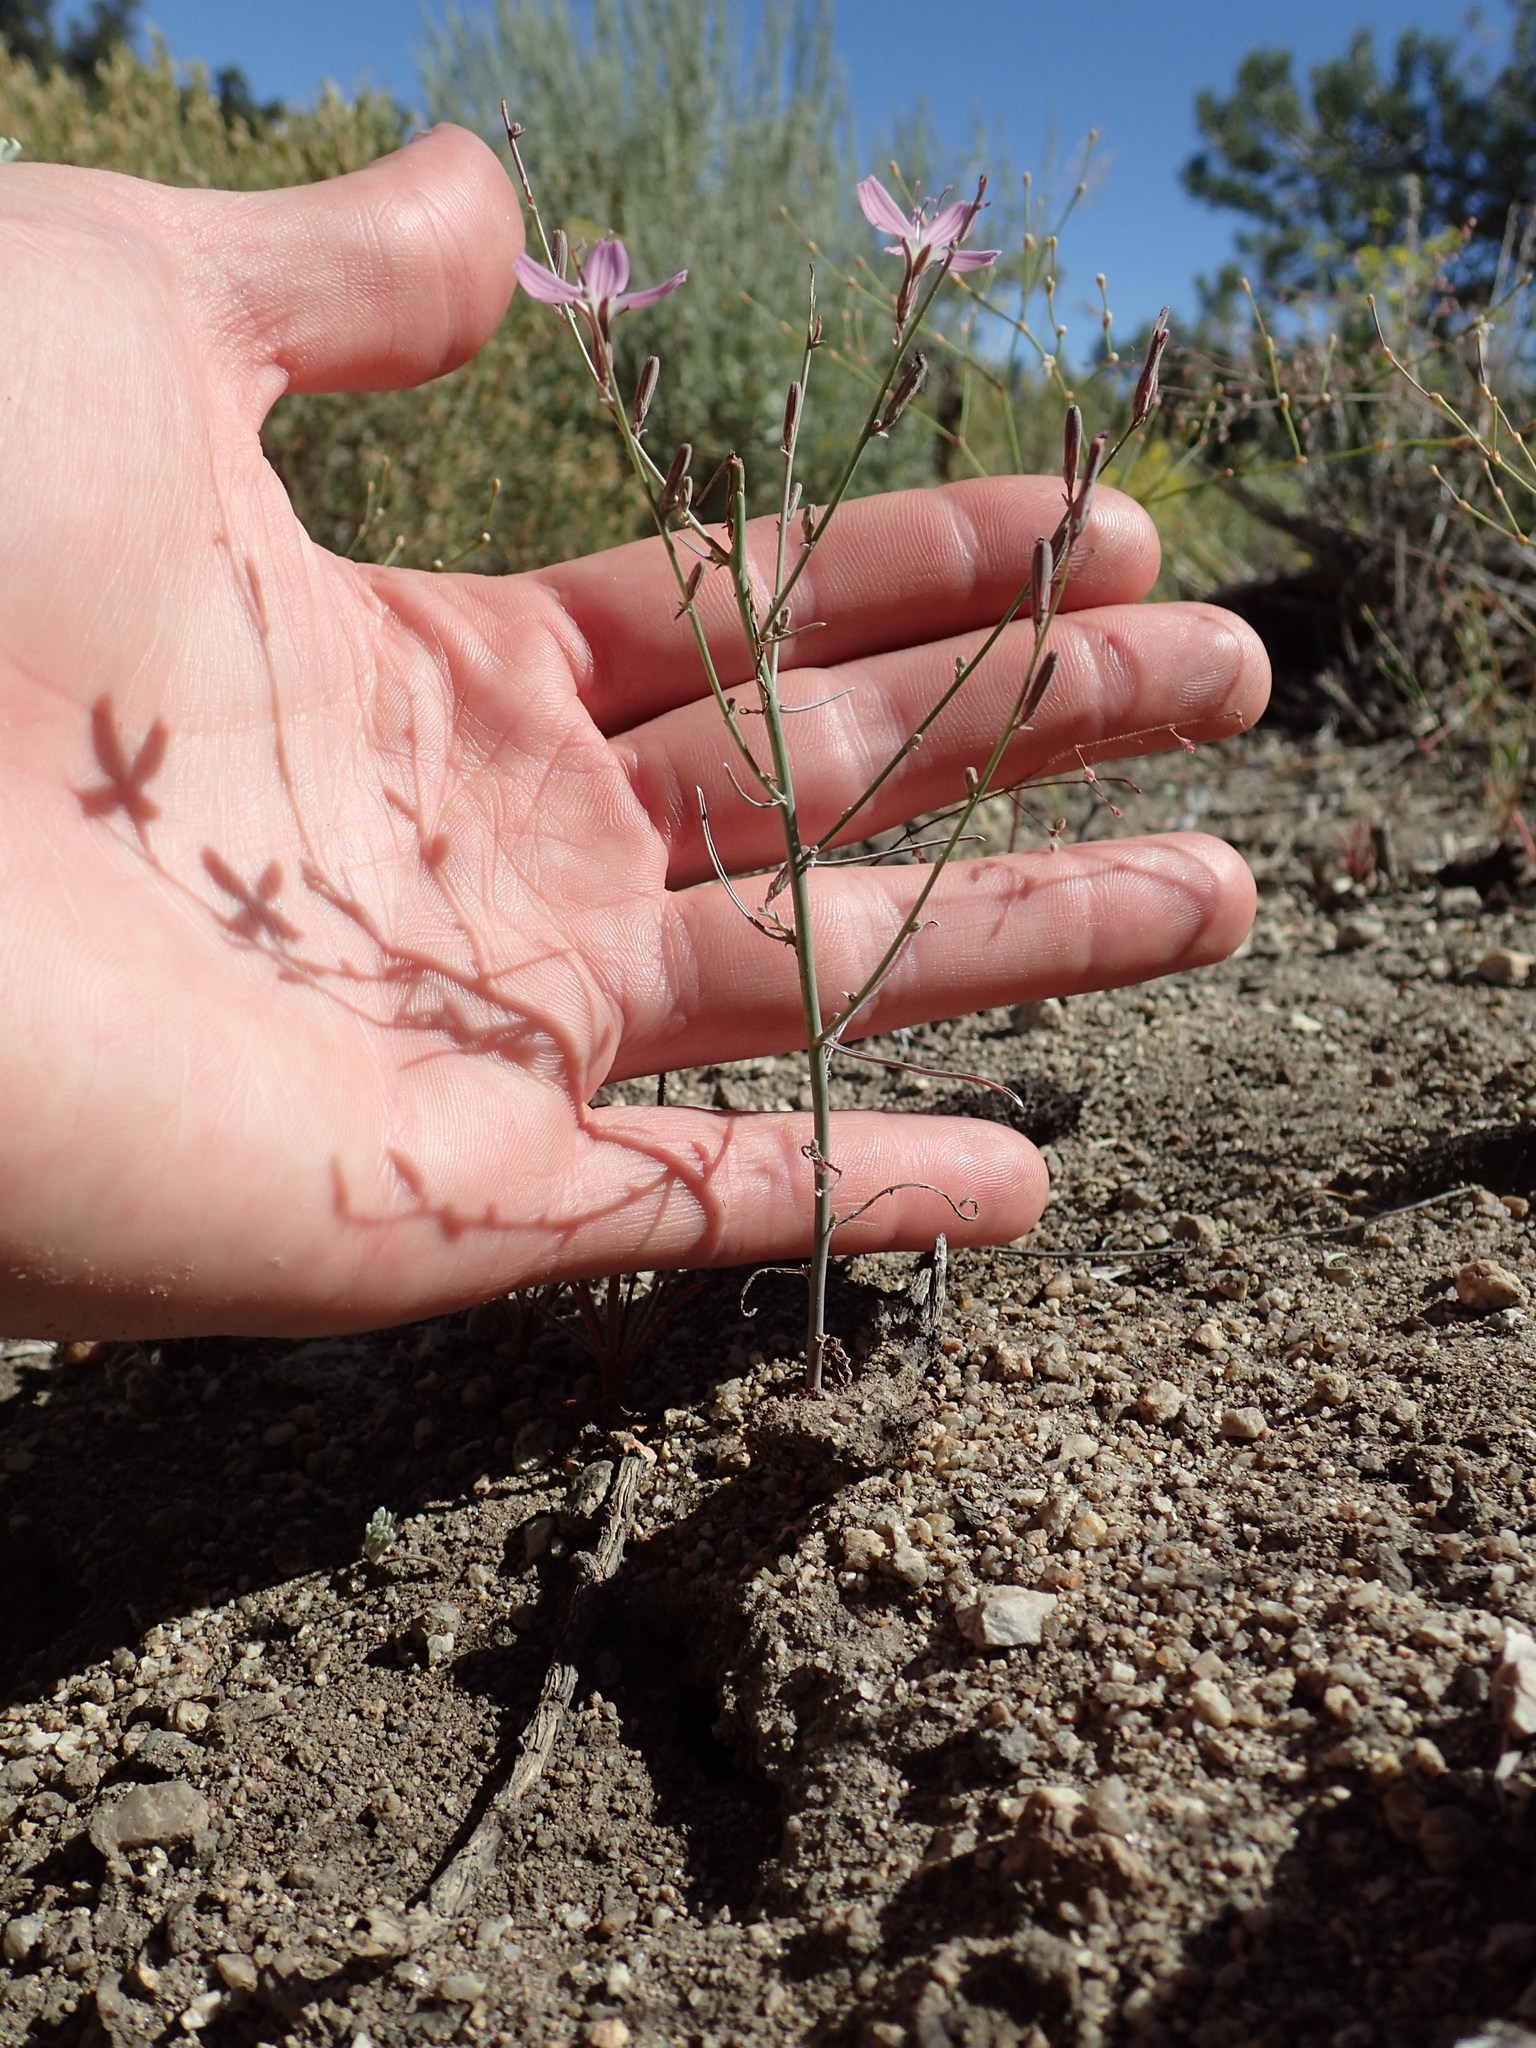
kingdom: Plantae
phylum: Tracheophyta
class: Magnoliopsida
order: Asterales
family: Asteraceae
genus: Stephanomeria
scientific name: Stephanomeria exigua
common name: Small wirelettuce
